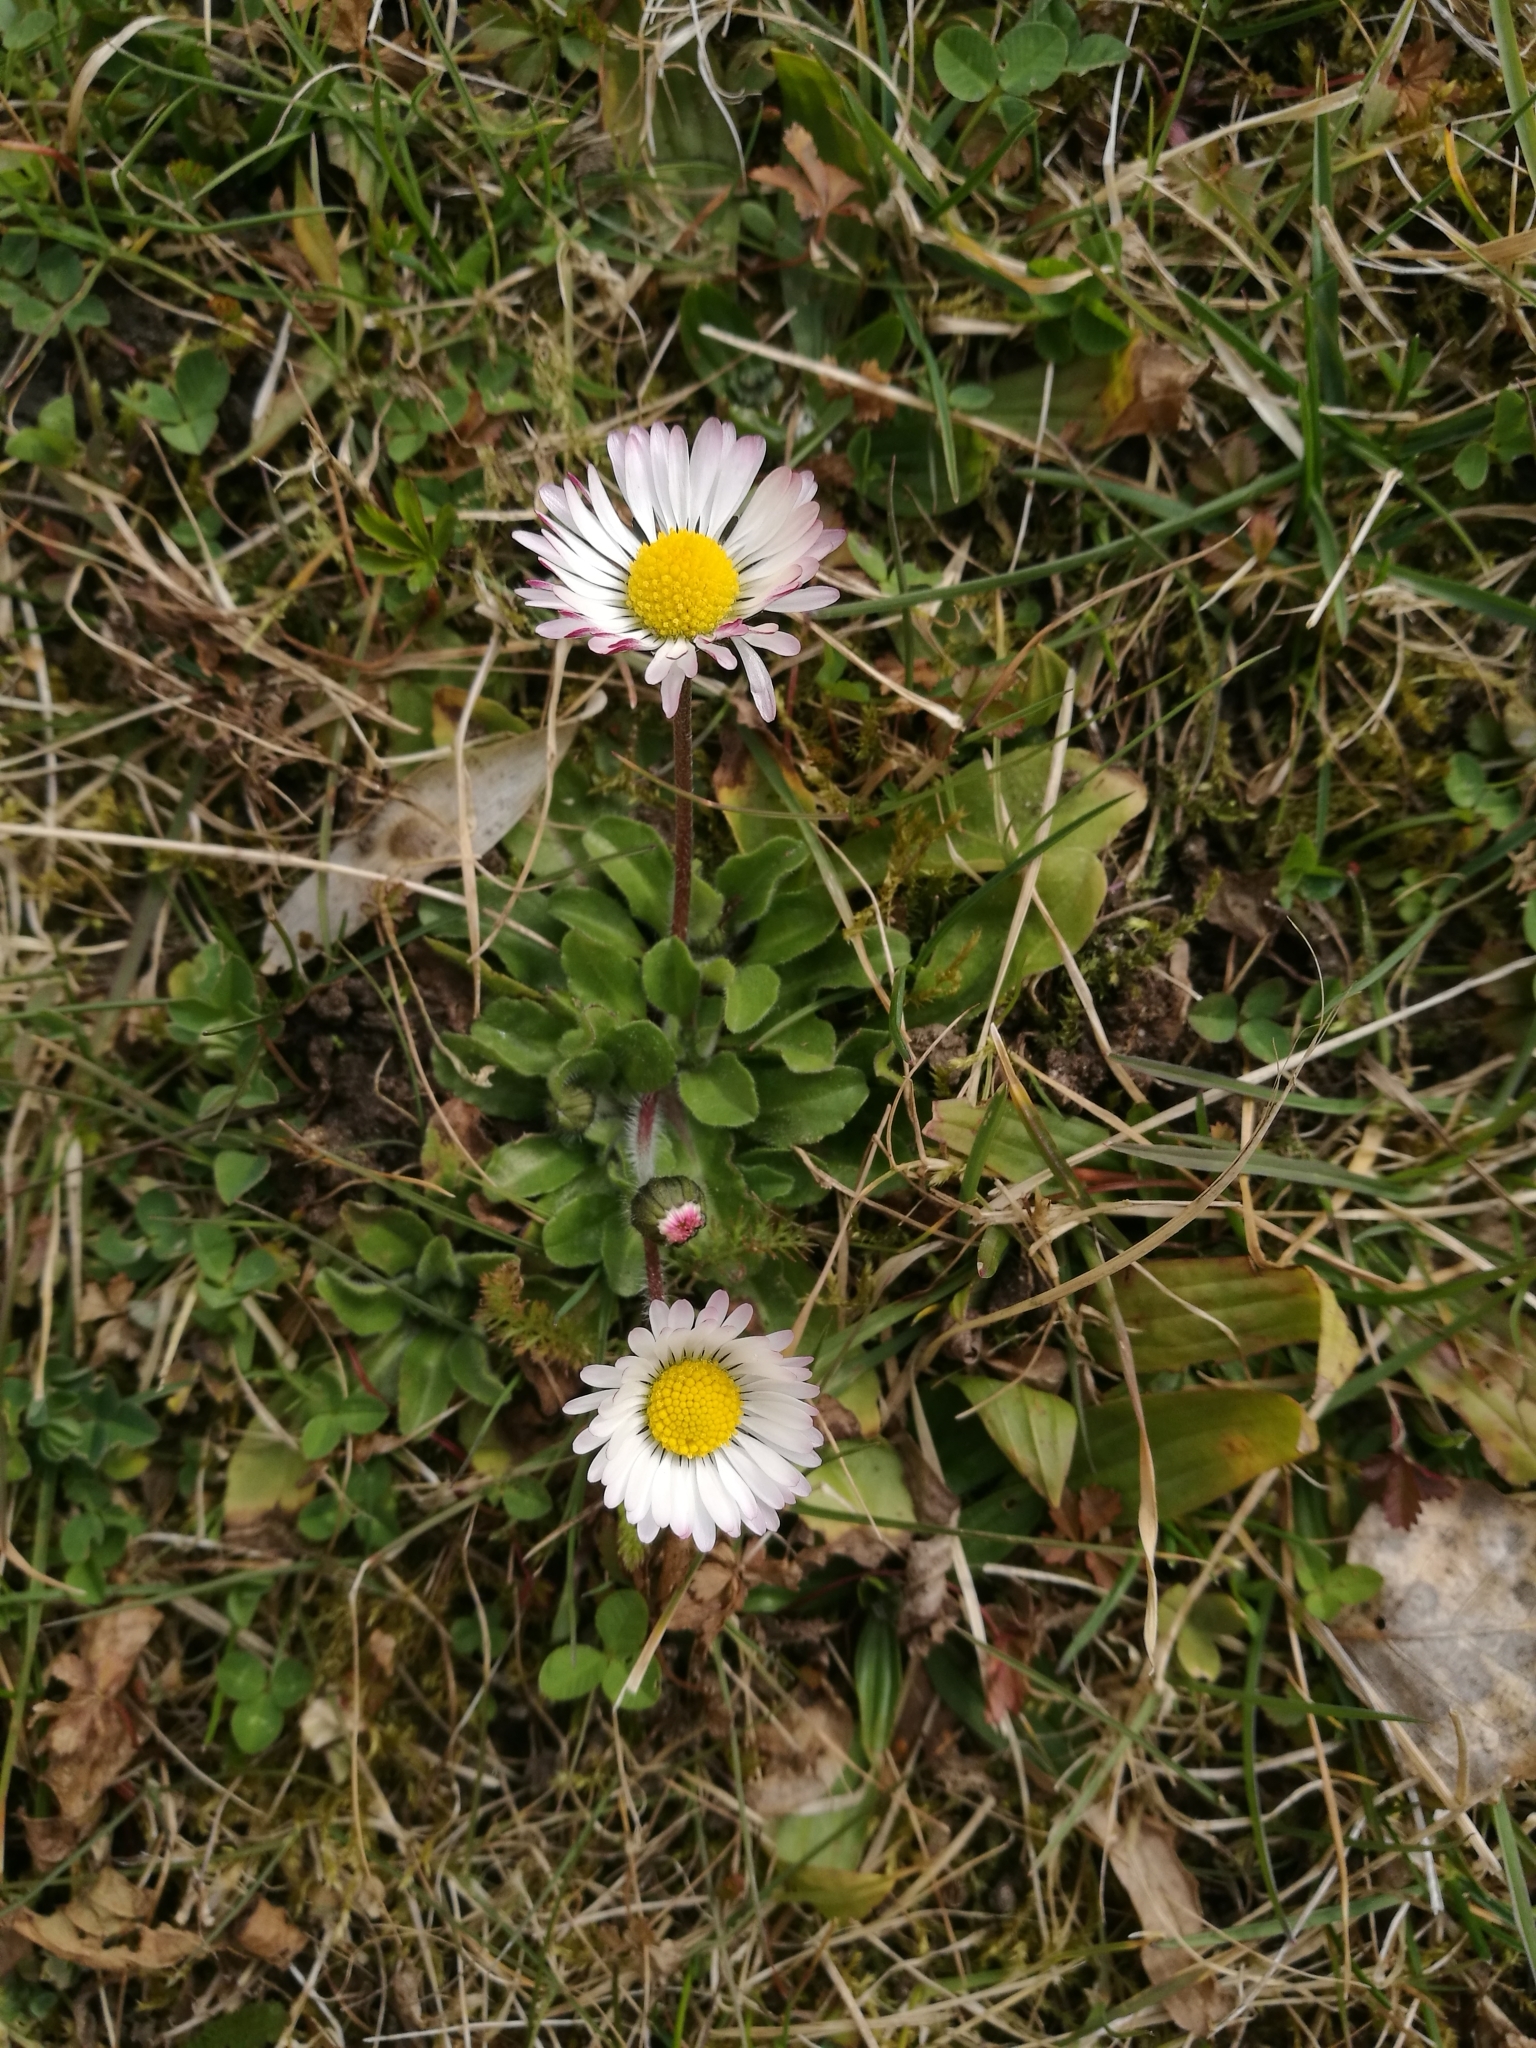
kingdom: Plantae
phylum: Tracheophyta
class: Magnoliopsida
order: Asterales
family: Asteraceae
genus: Bellis
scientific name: Bellis perennis
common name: Lawndaisy
